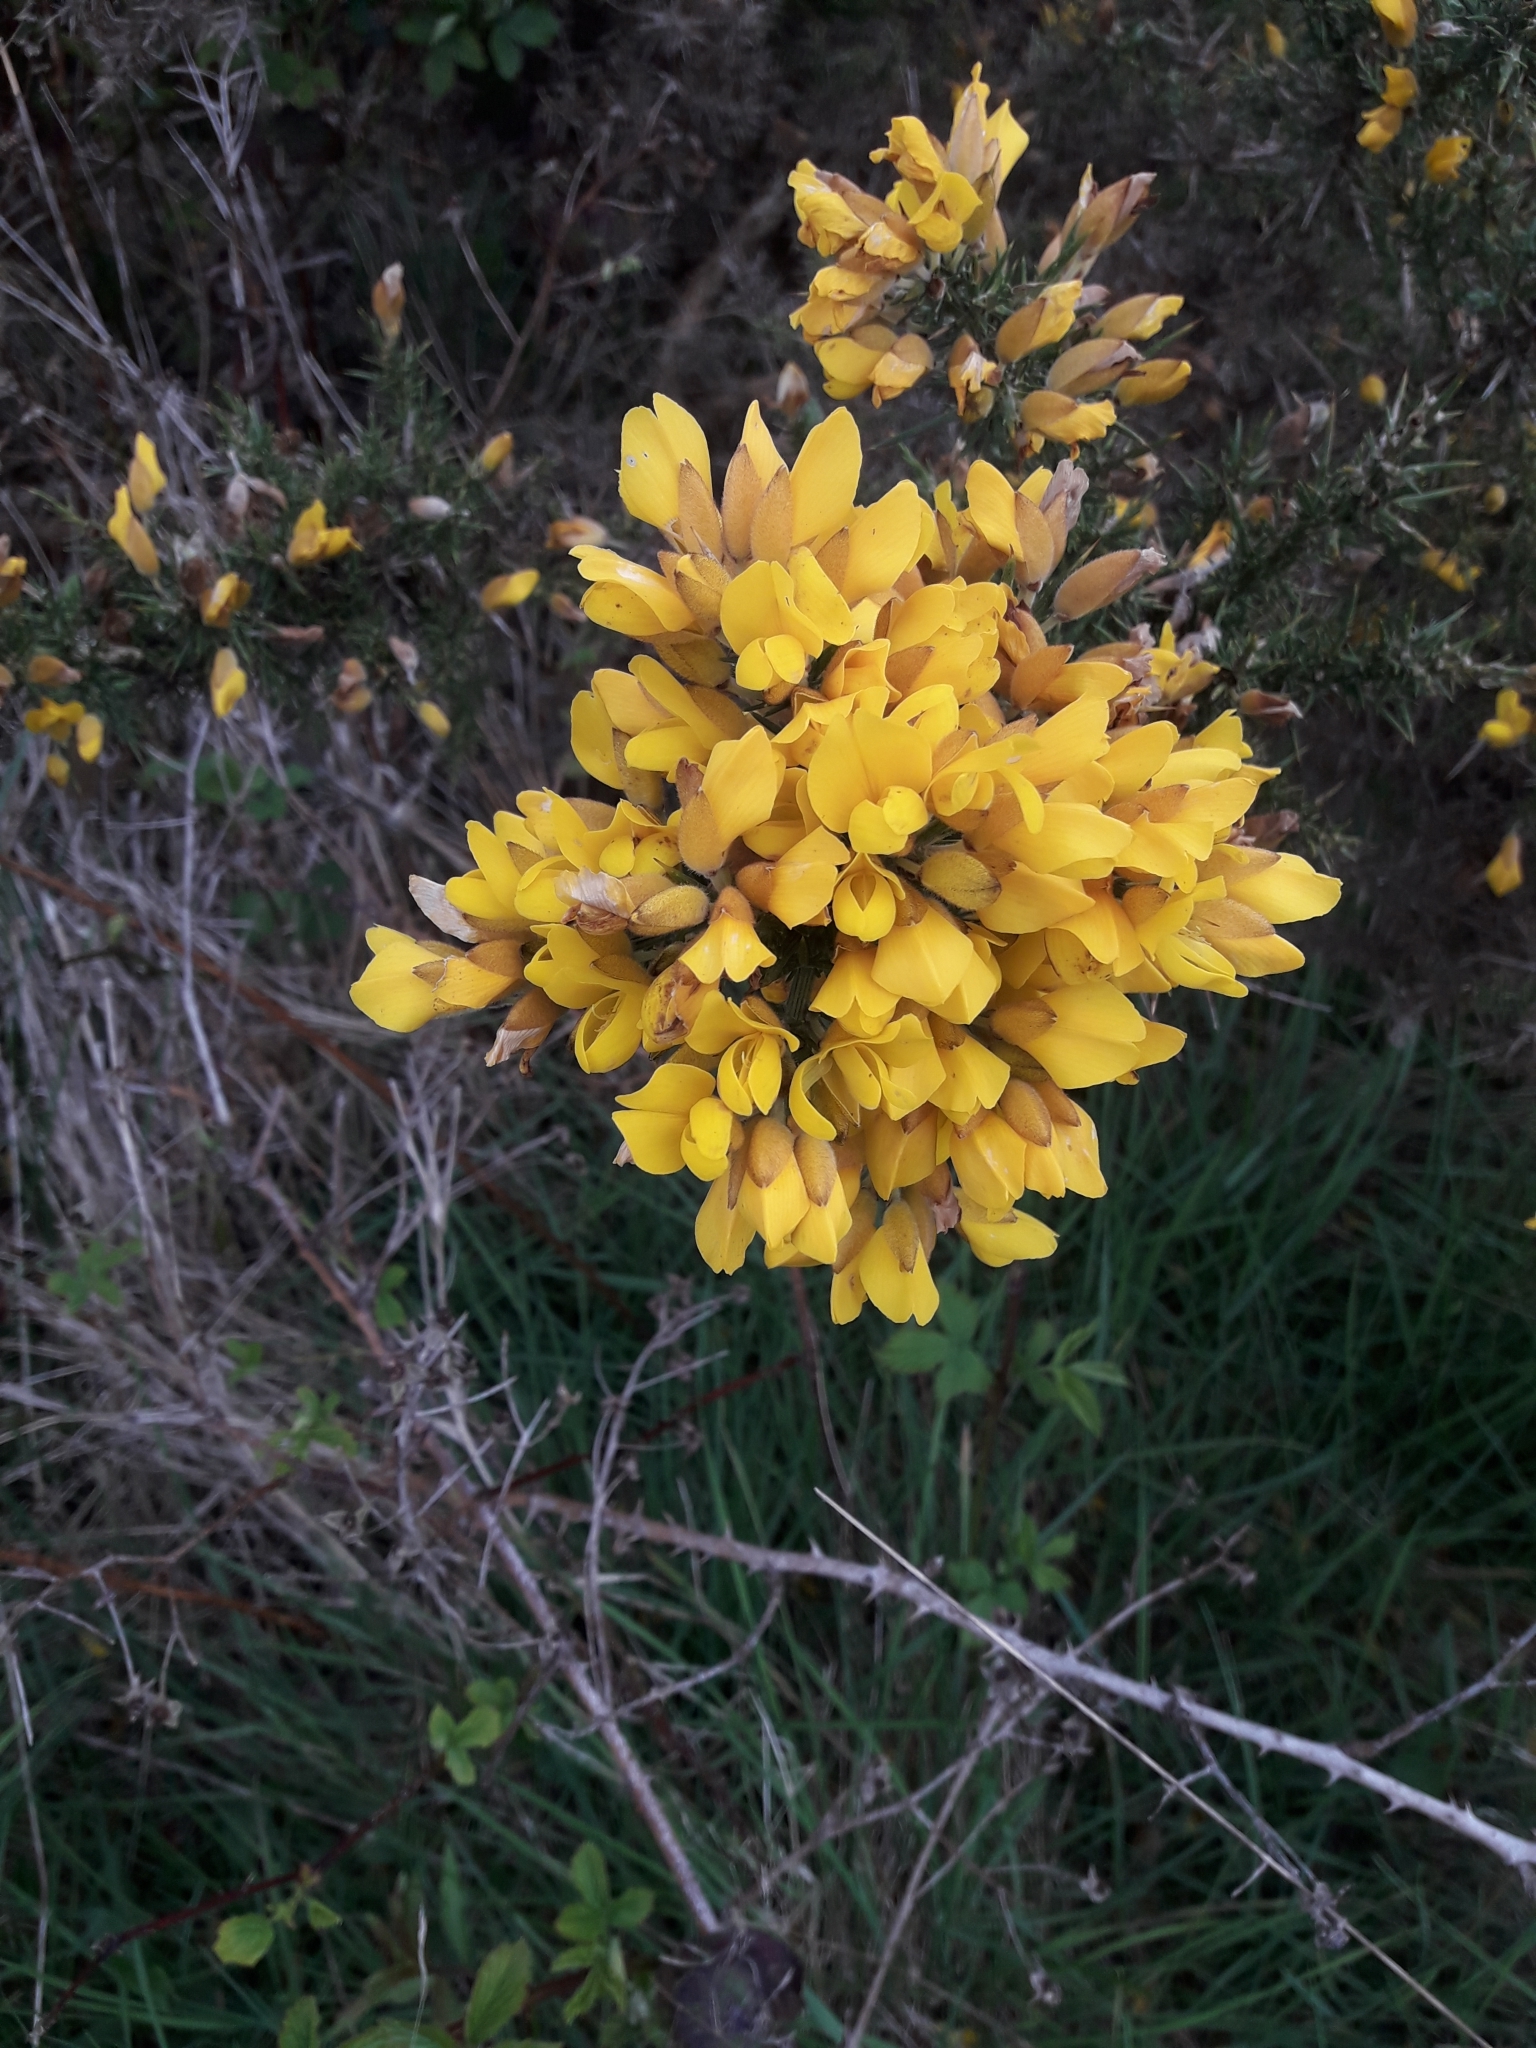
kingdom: Plantae
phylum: Tracheophyta
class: Magnoliopsida
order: Fabales
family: Fabaceae
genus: Ulex
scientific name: Ulex europaeus
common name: Common gorse
